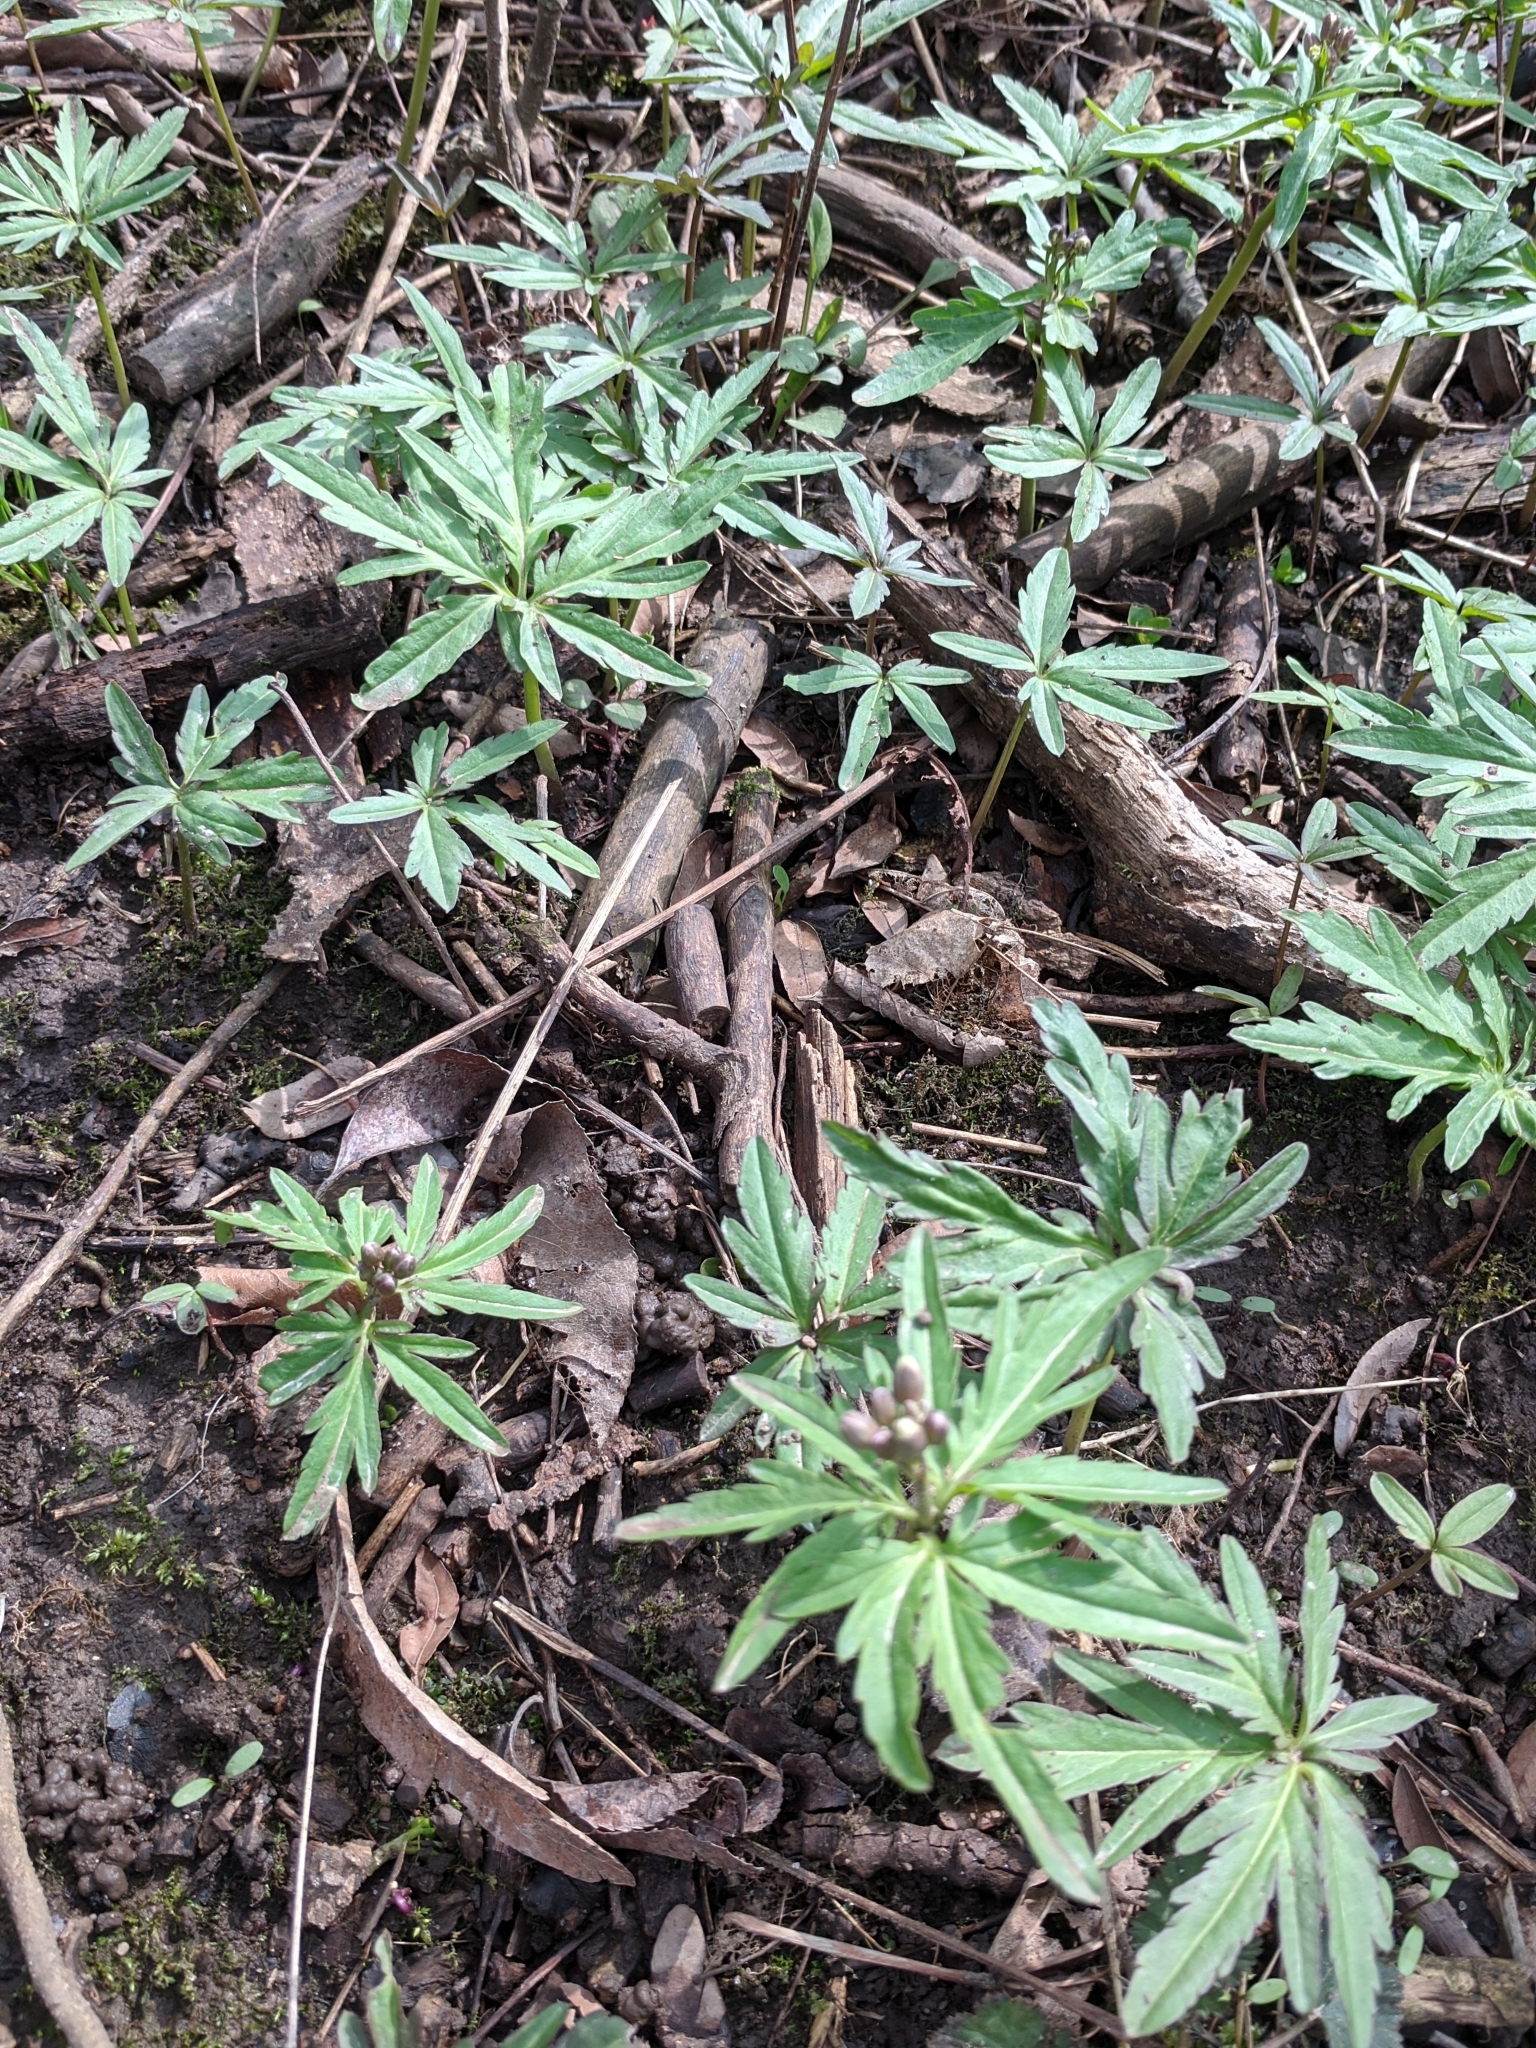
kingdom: Plantae
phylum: Tracheophyta
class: Magnoliopsida
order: Brassicales
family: Brassicaceae
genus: Cardamine
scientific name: Cardamine concatenata
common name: Cut-leaf toothcup
